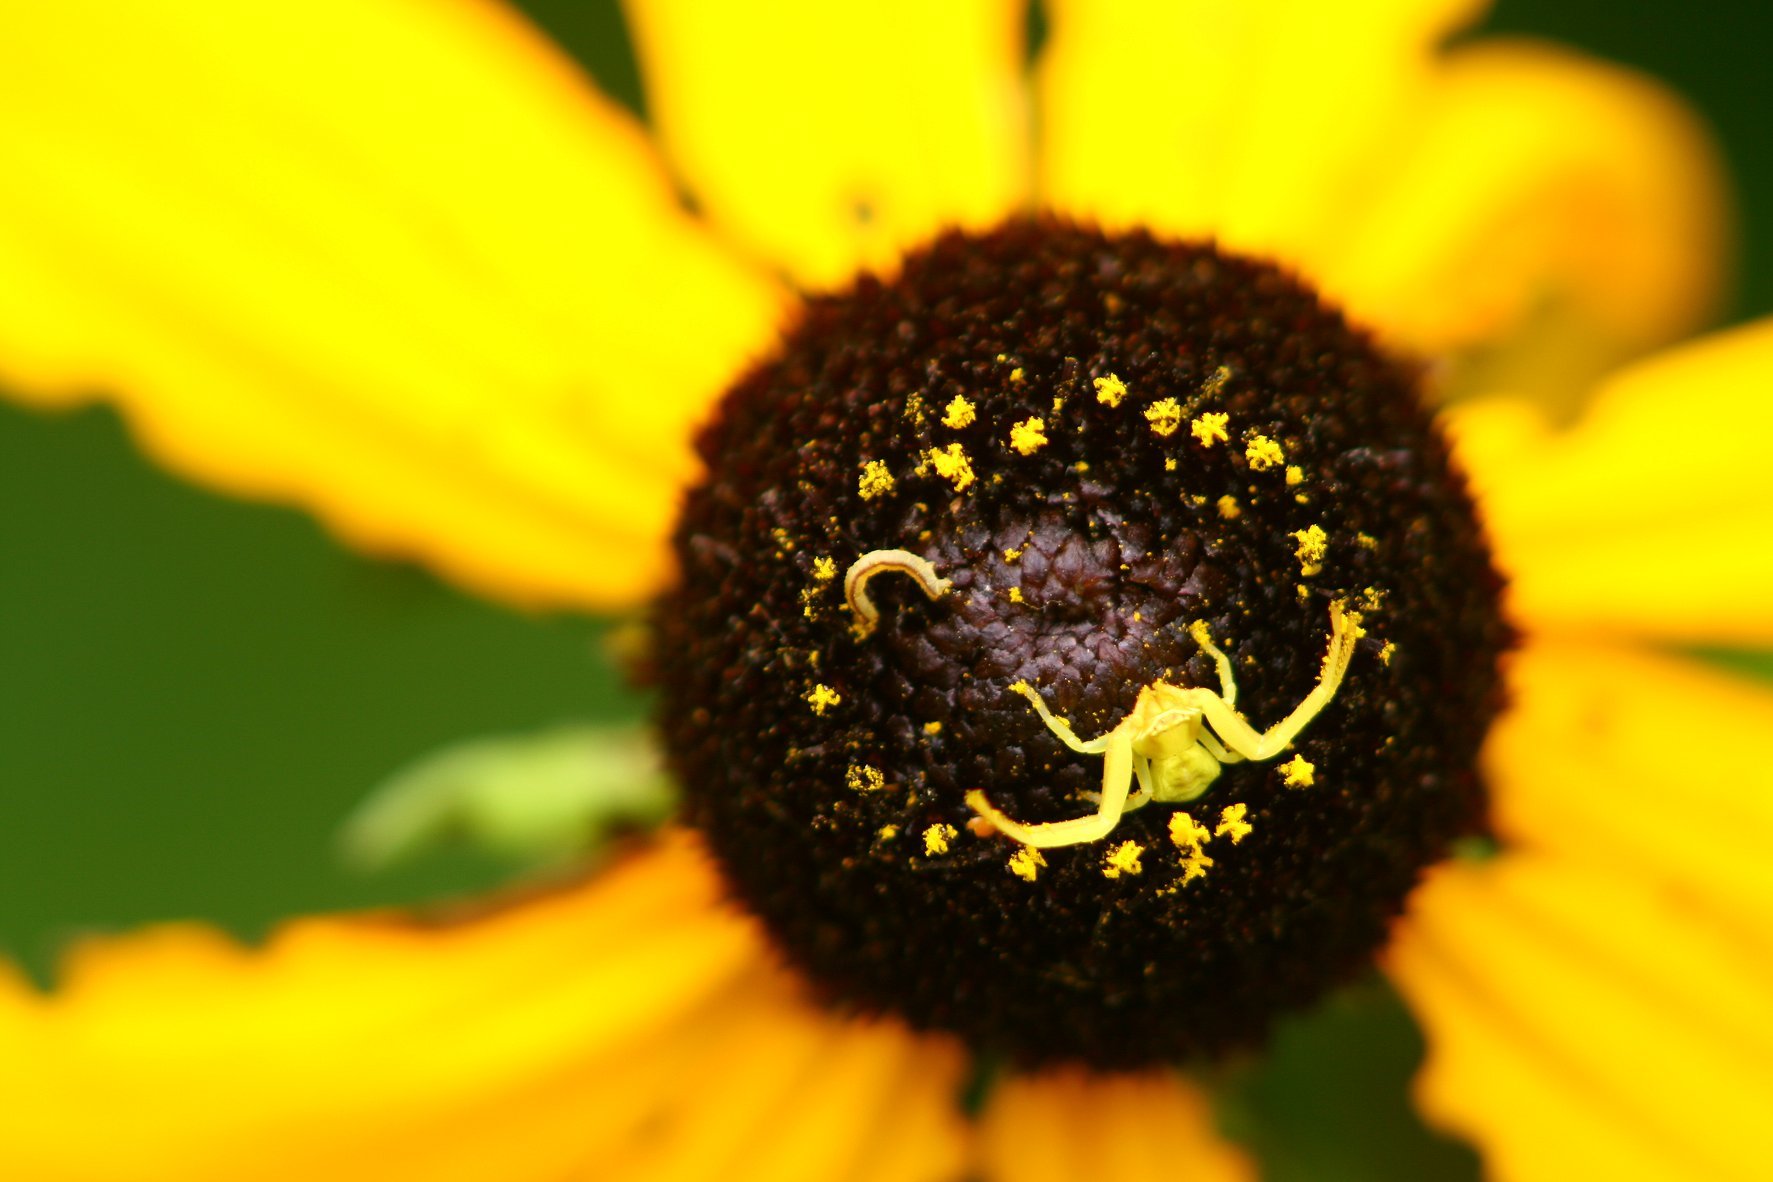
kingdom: Animalia
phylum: Arthropoda
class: Arachnida
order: Araneae
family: Thomisidae
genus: Misumenoides
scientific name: Misumenoides formosipes
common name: White-banded crab spider
